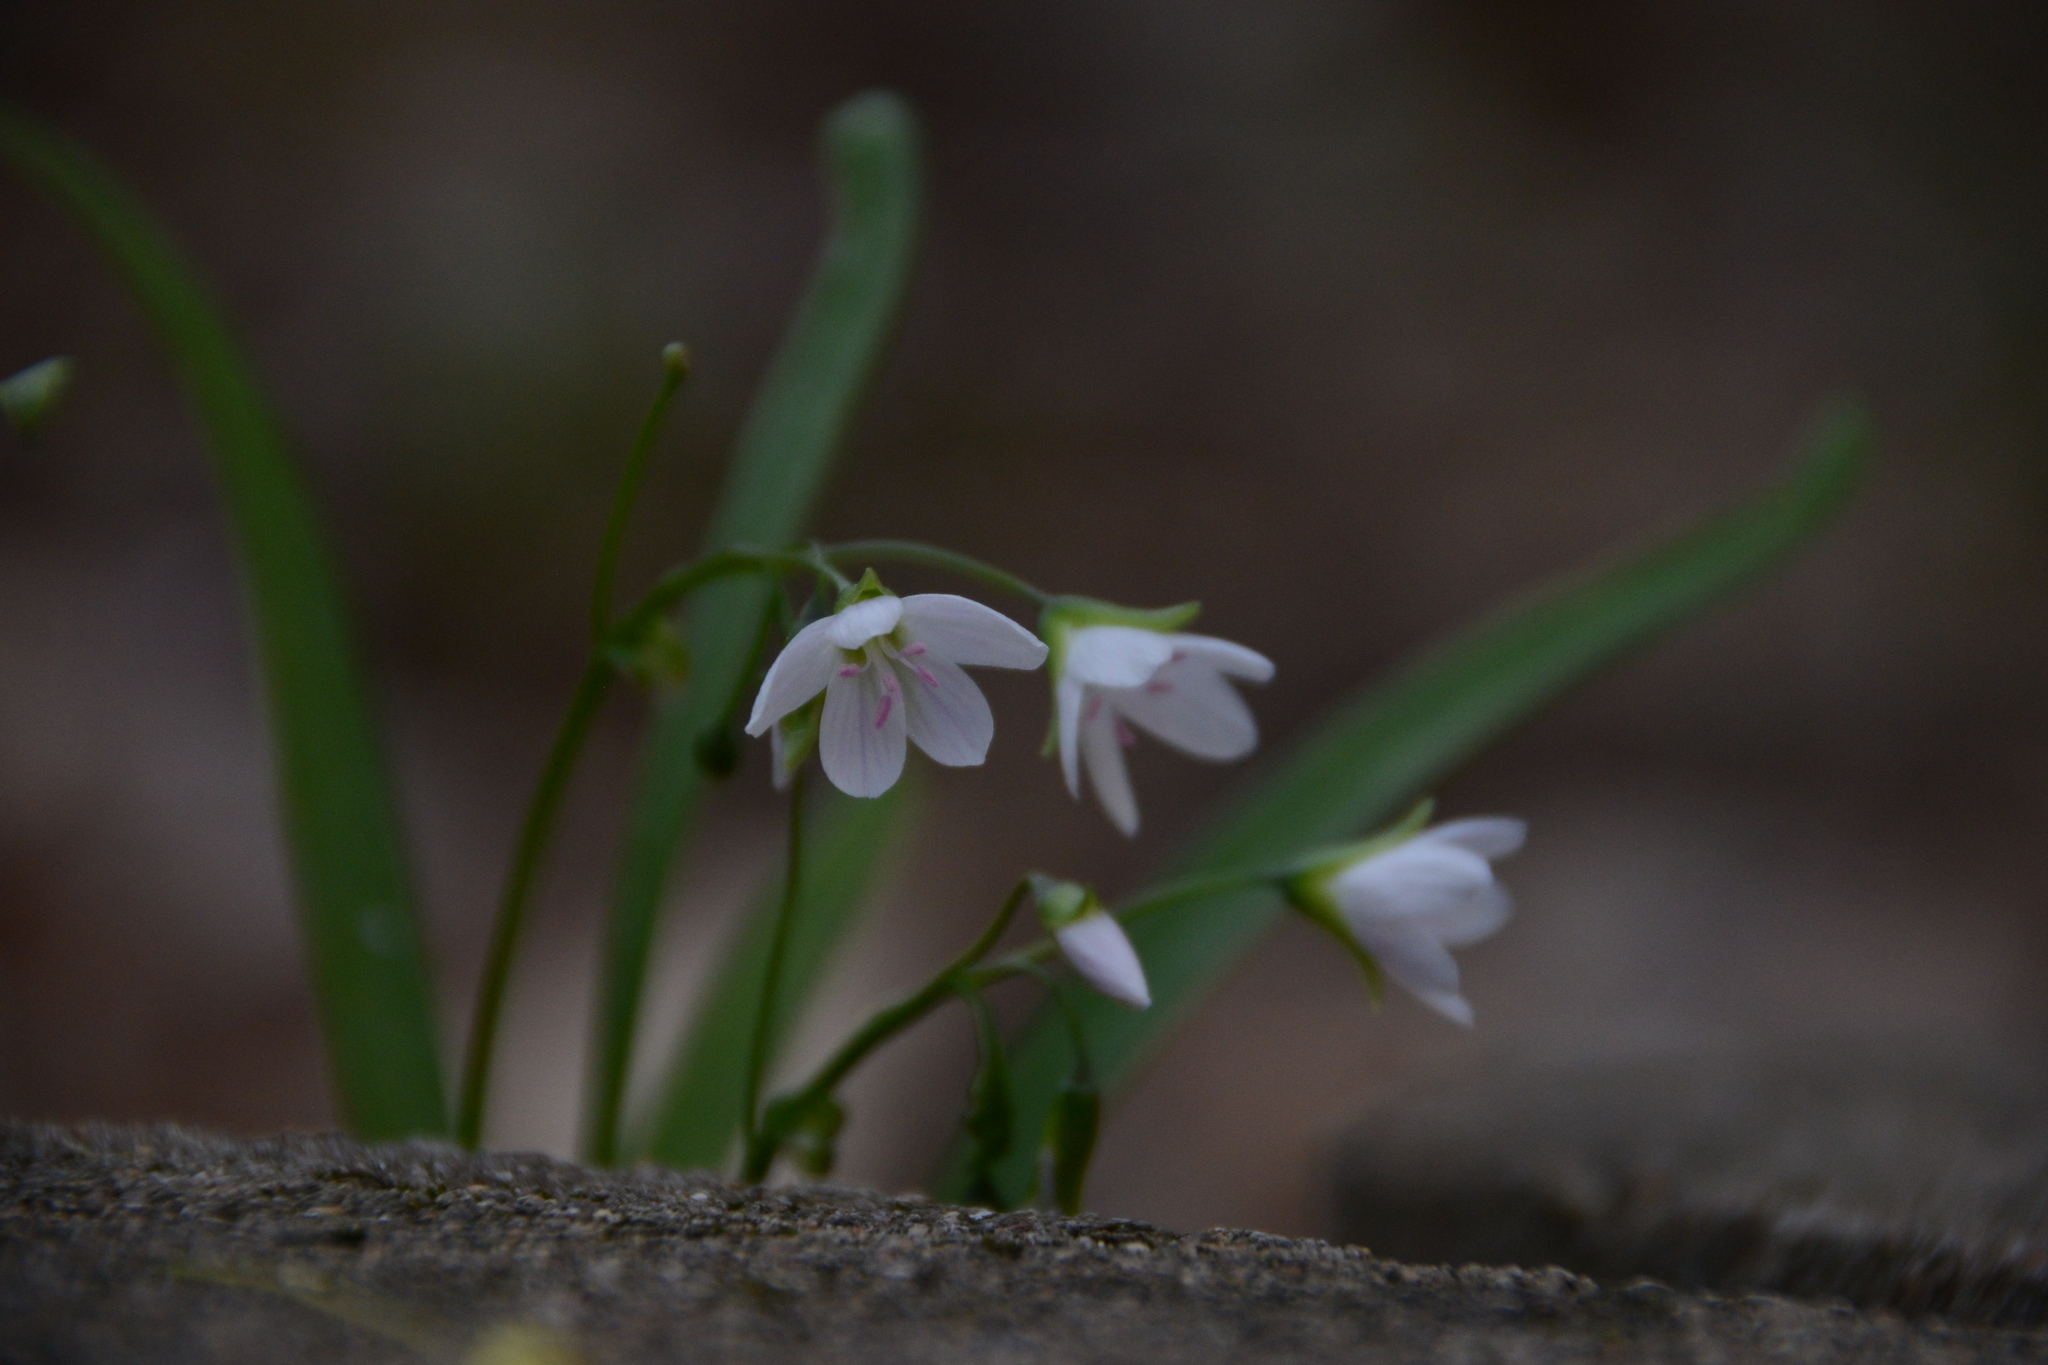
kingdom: Plantae
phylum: Tracheophyta
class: Magnoliopsida
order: Caryophyllales
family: Montiaceae
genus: Claytonia
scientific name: Claytonia virginica
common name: Virginia springbeauty
